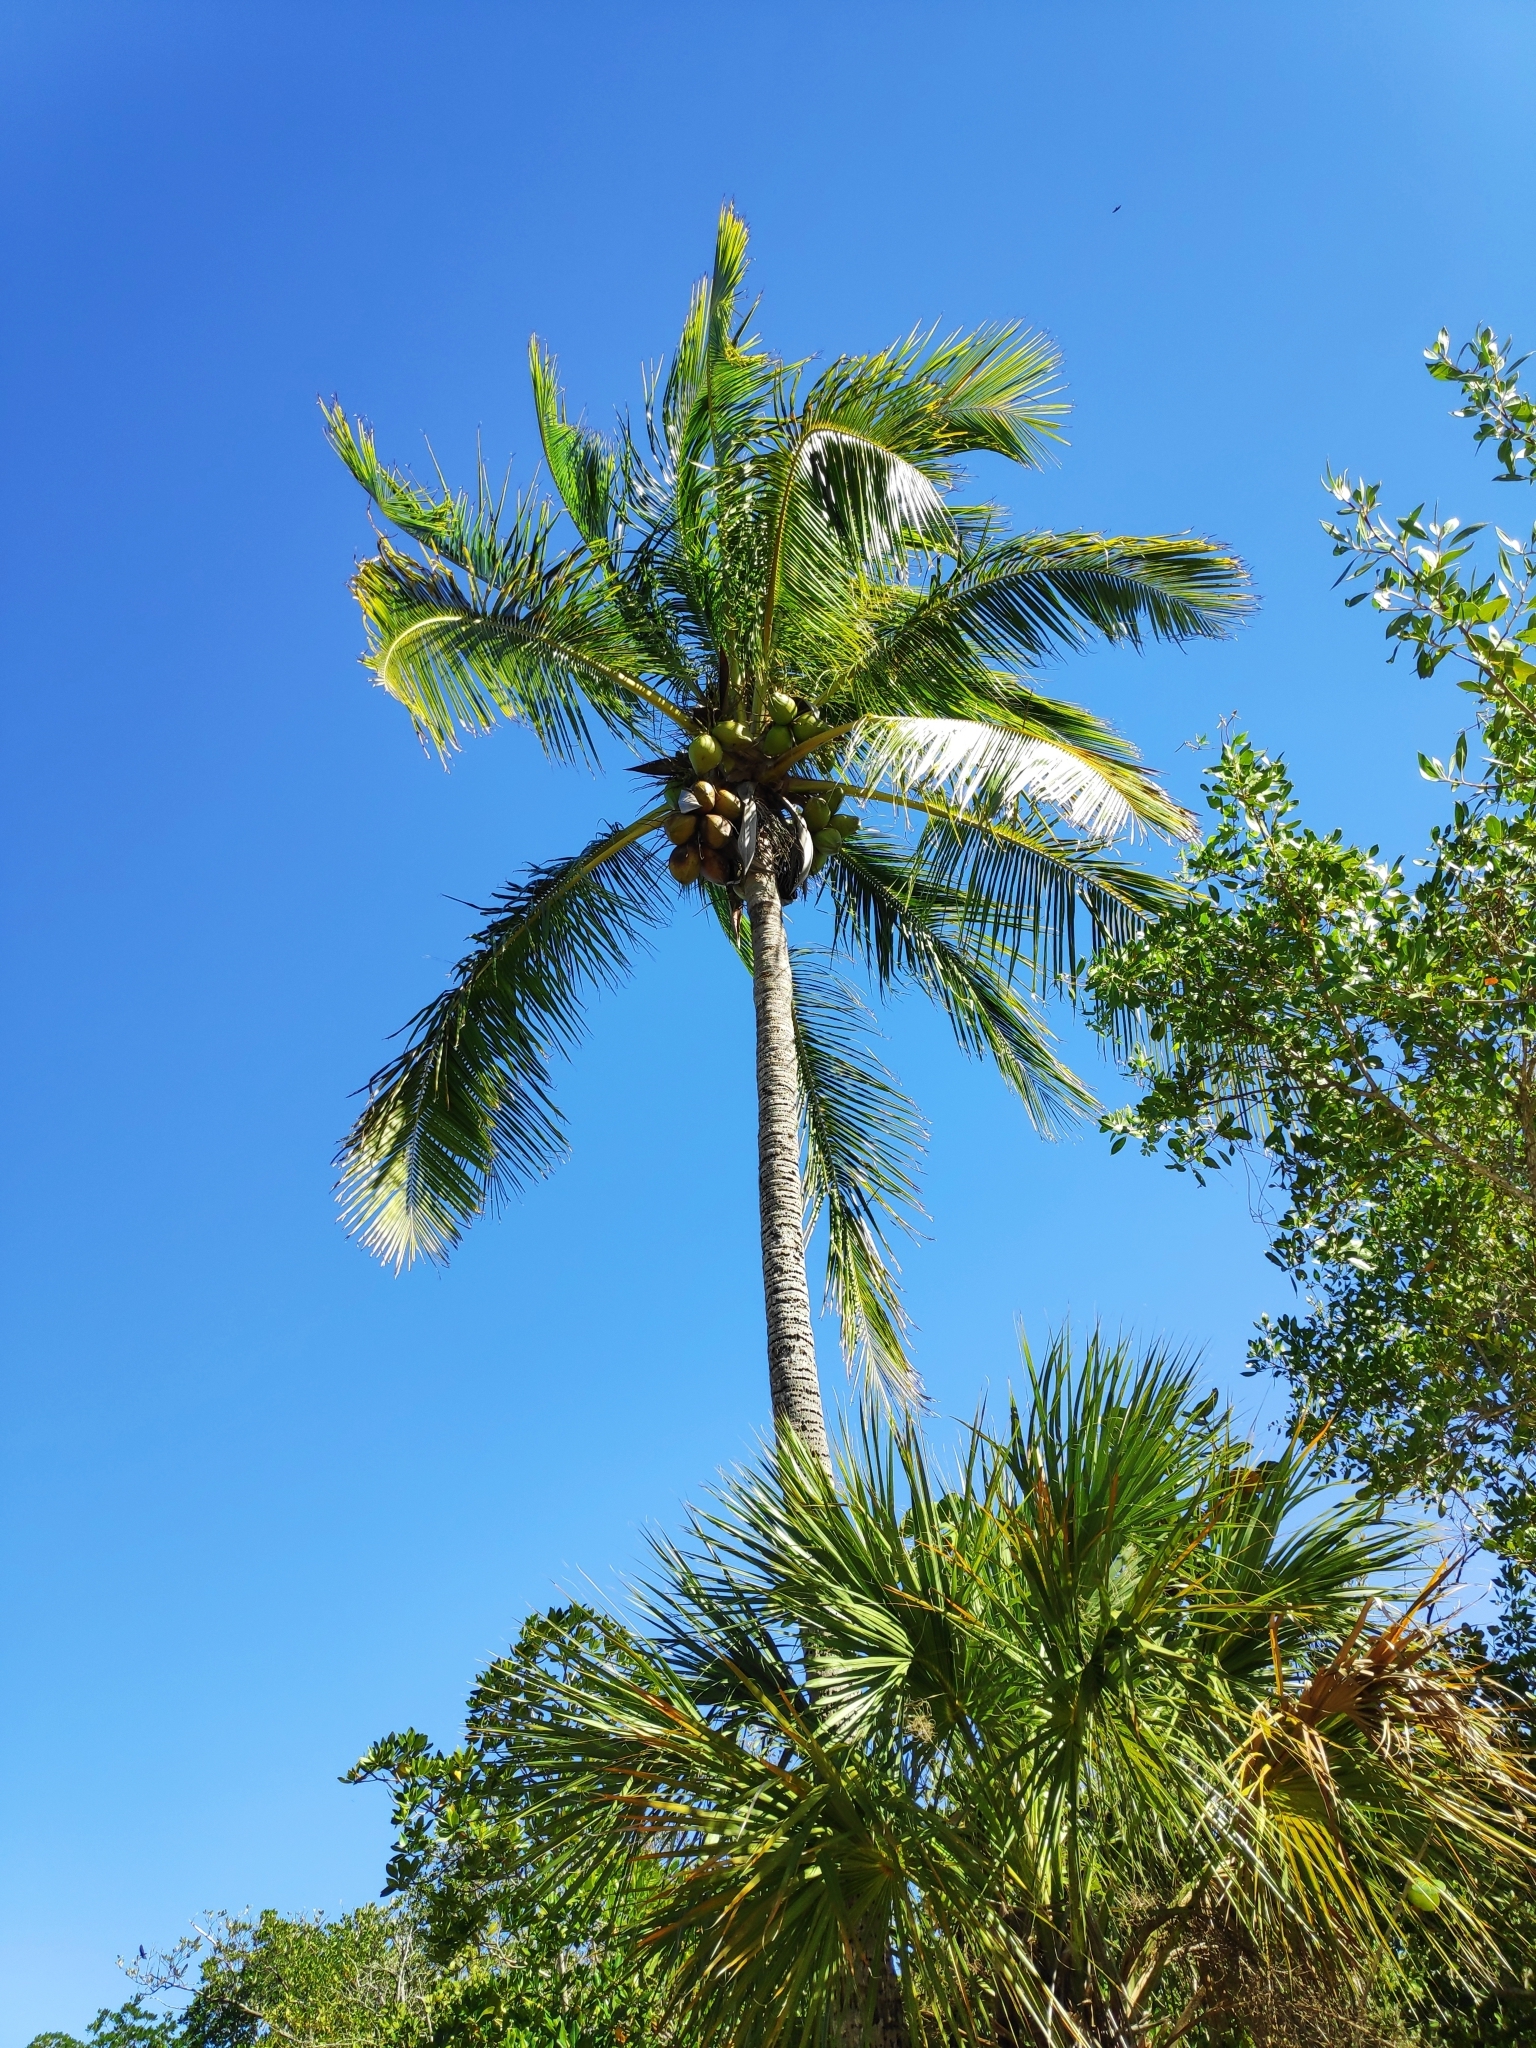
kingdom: Plantae
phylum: Tracheophyta
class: Liliopsida
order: Arecales
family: Arecaceae
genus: Cocos
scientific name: Cocos nucifera
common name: Coconut palm
